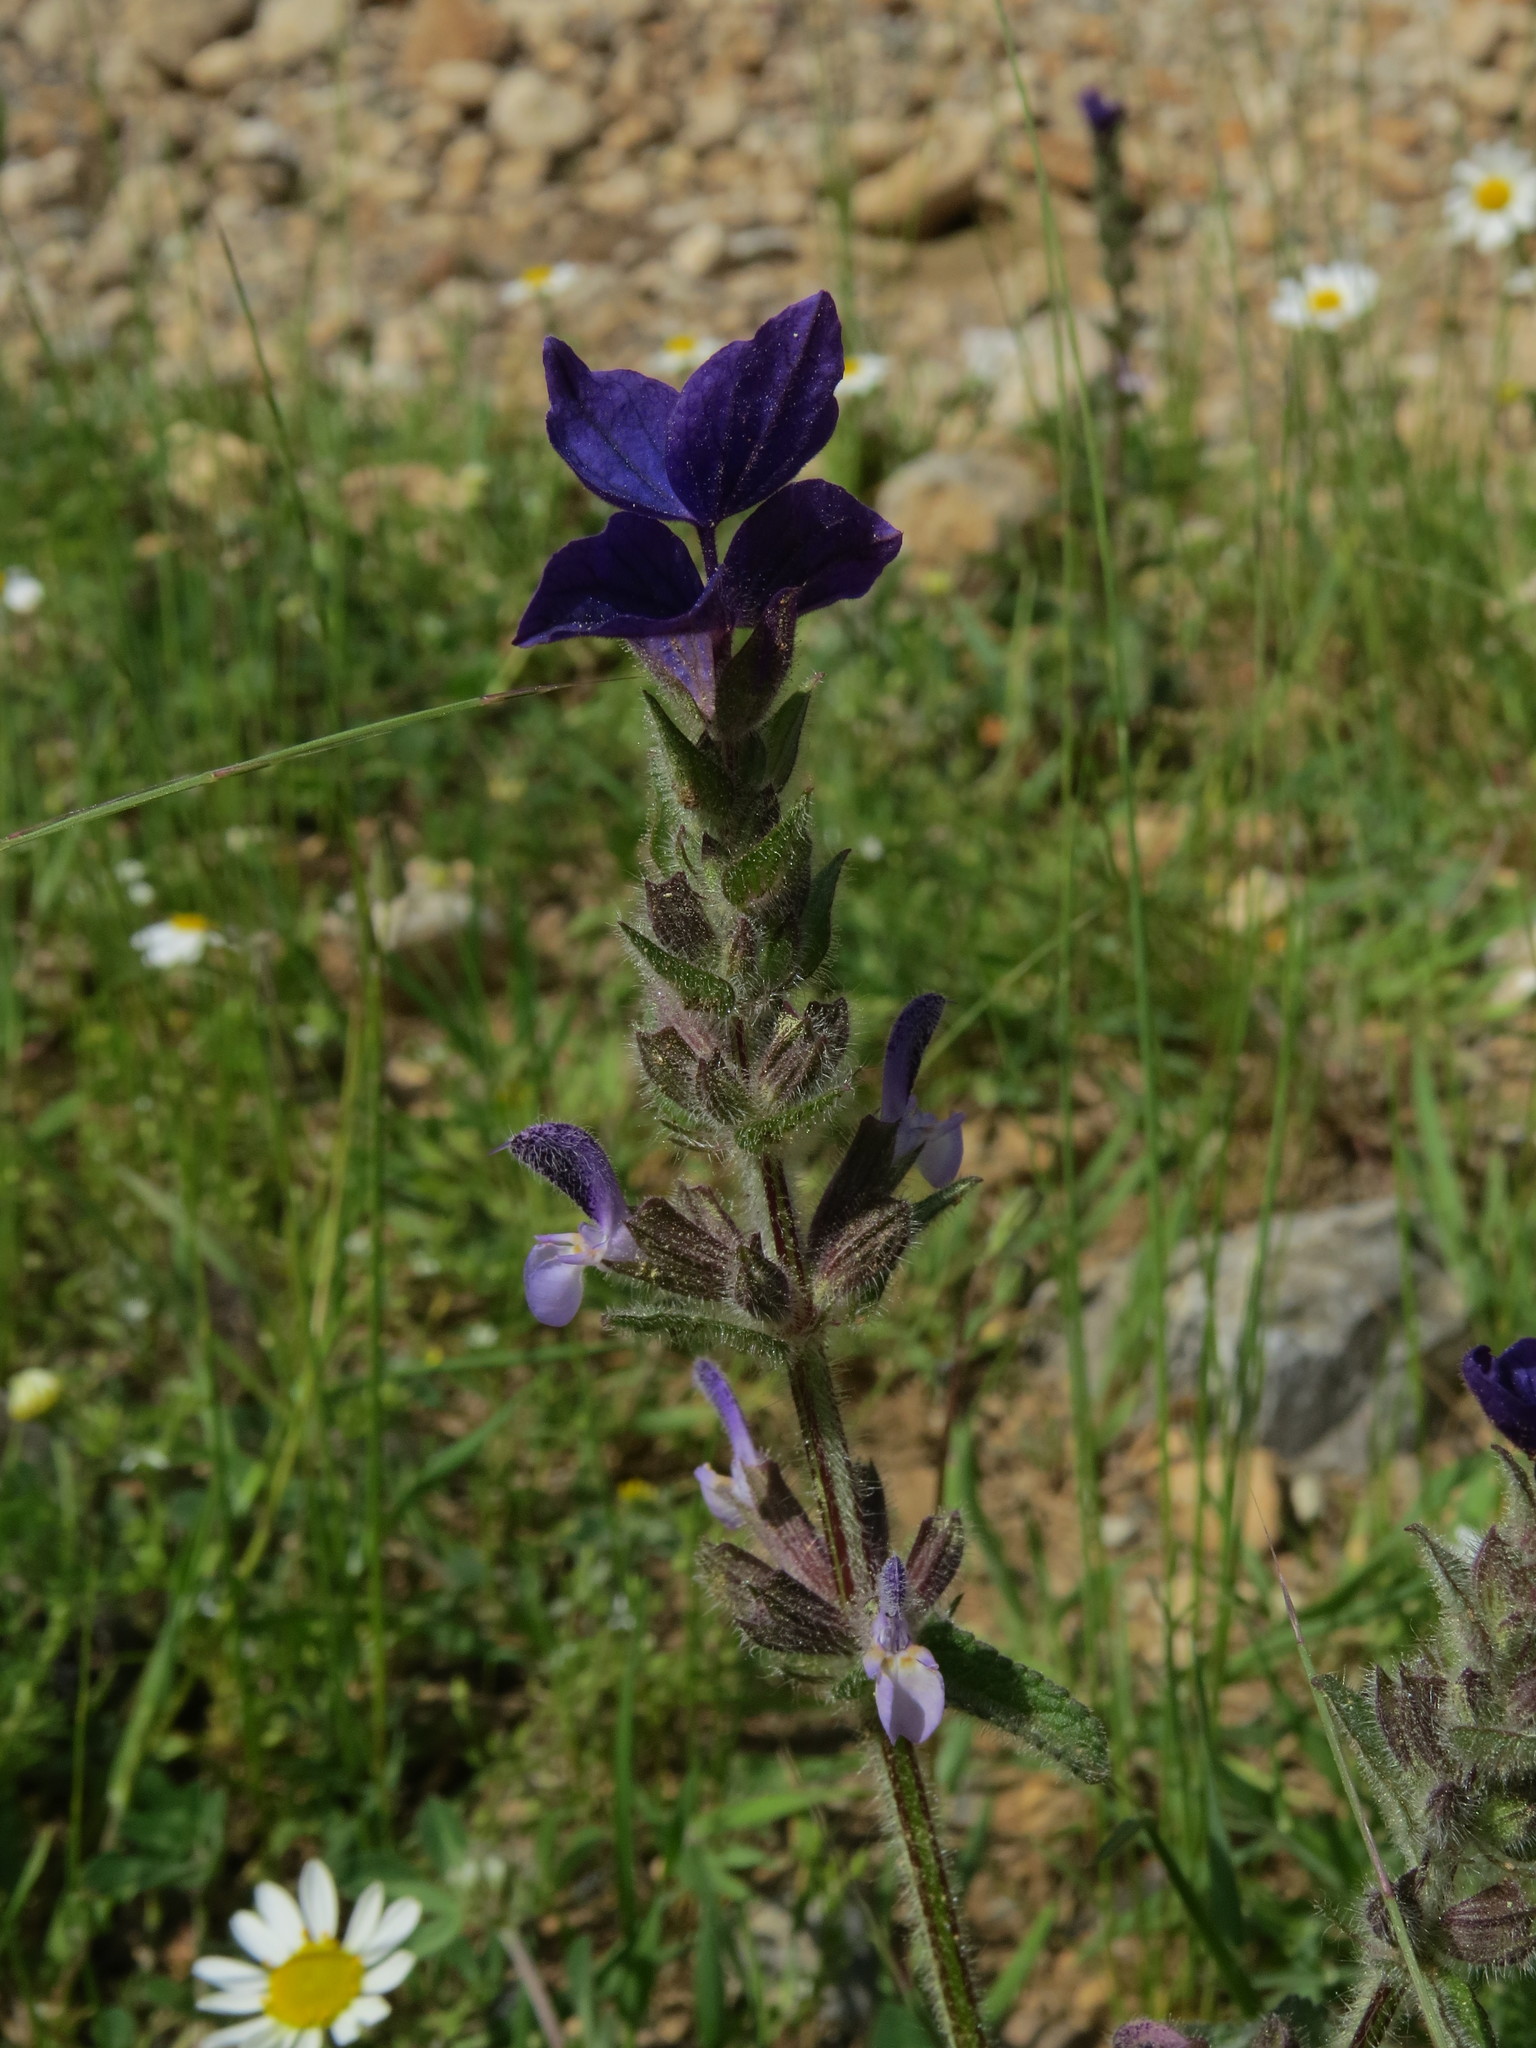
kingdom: Plantae
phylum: Tracheophyta
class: Magnoliopsida
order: Lamiales
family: Lamiaceae
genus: Salvia
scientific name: Salvia viridis
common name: Annual clary
